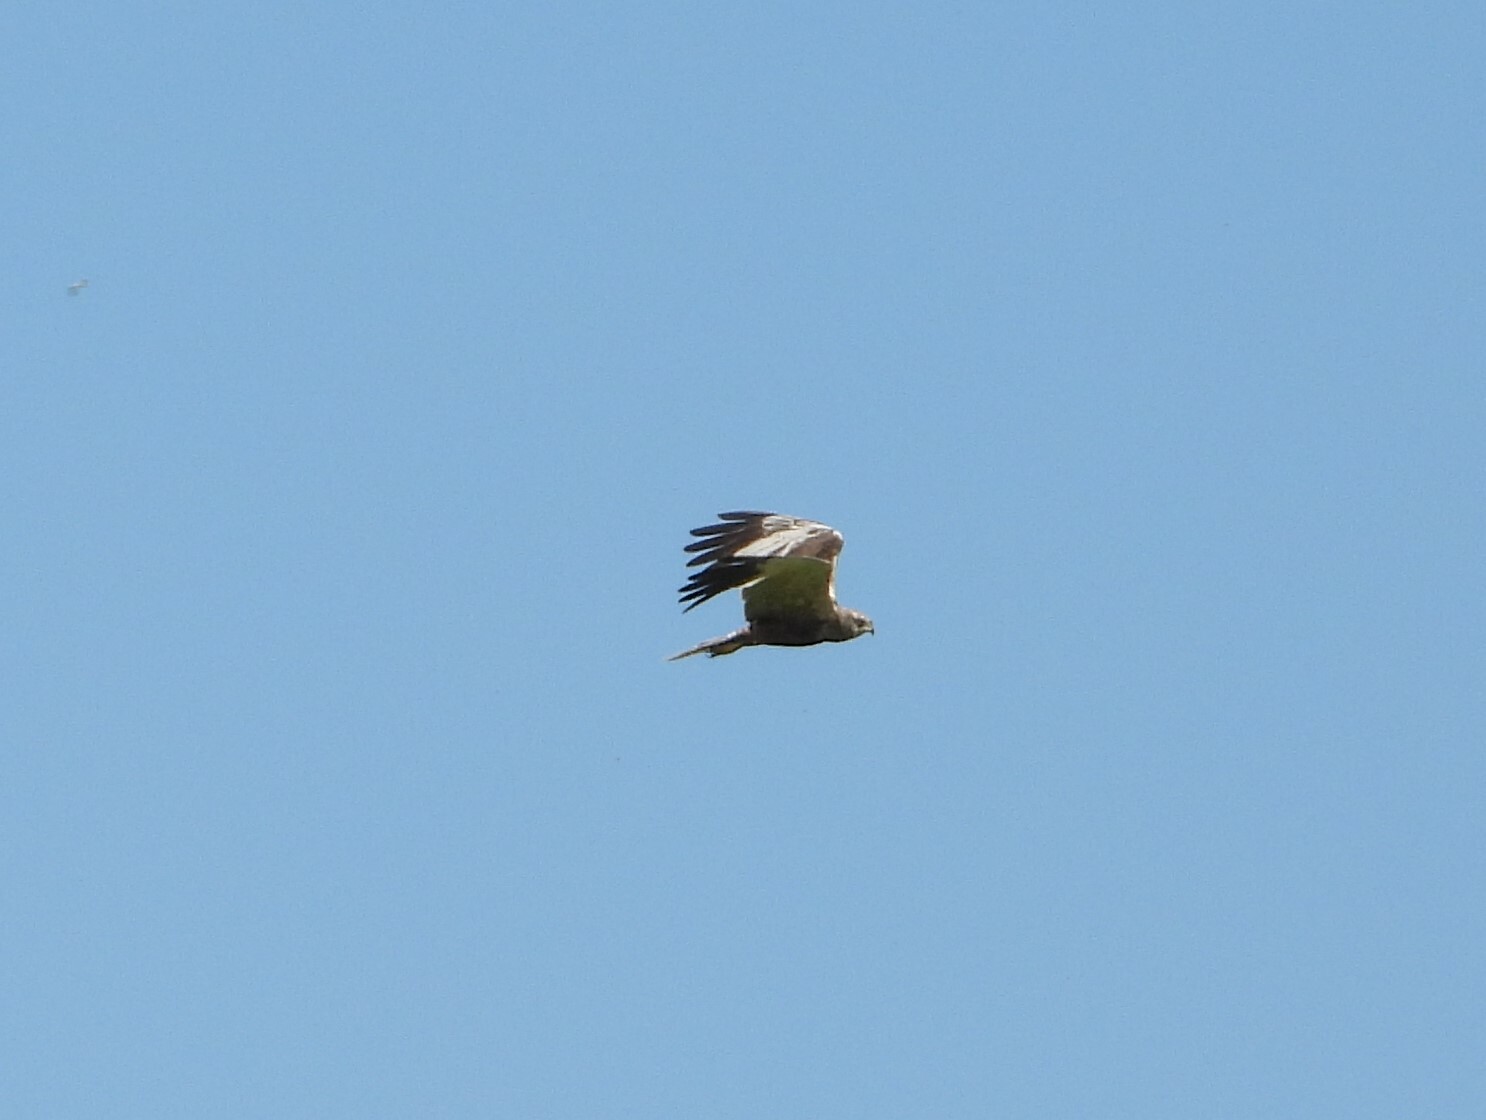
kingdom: Animalia
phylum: Chordata
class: Aves
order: Accipitriformes
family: Accipitridae
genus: Circus
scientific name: Circus aeruginosus
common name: Western marsh harrier
